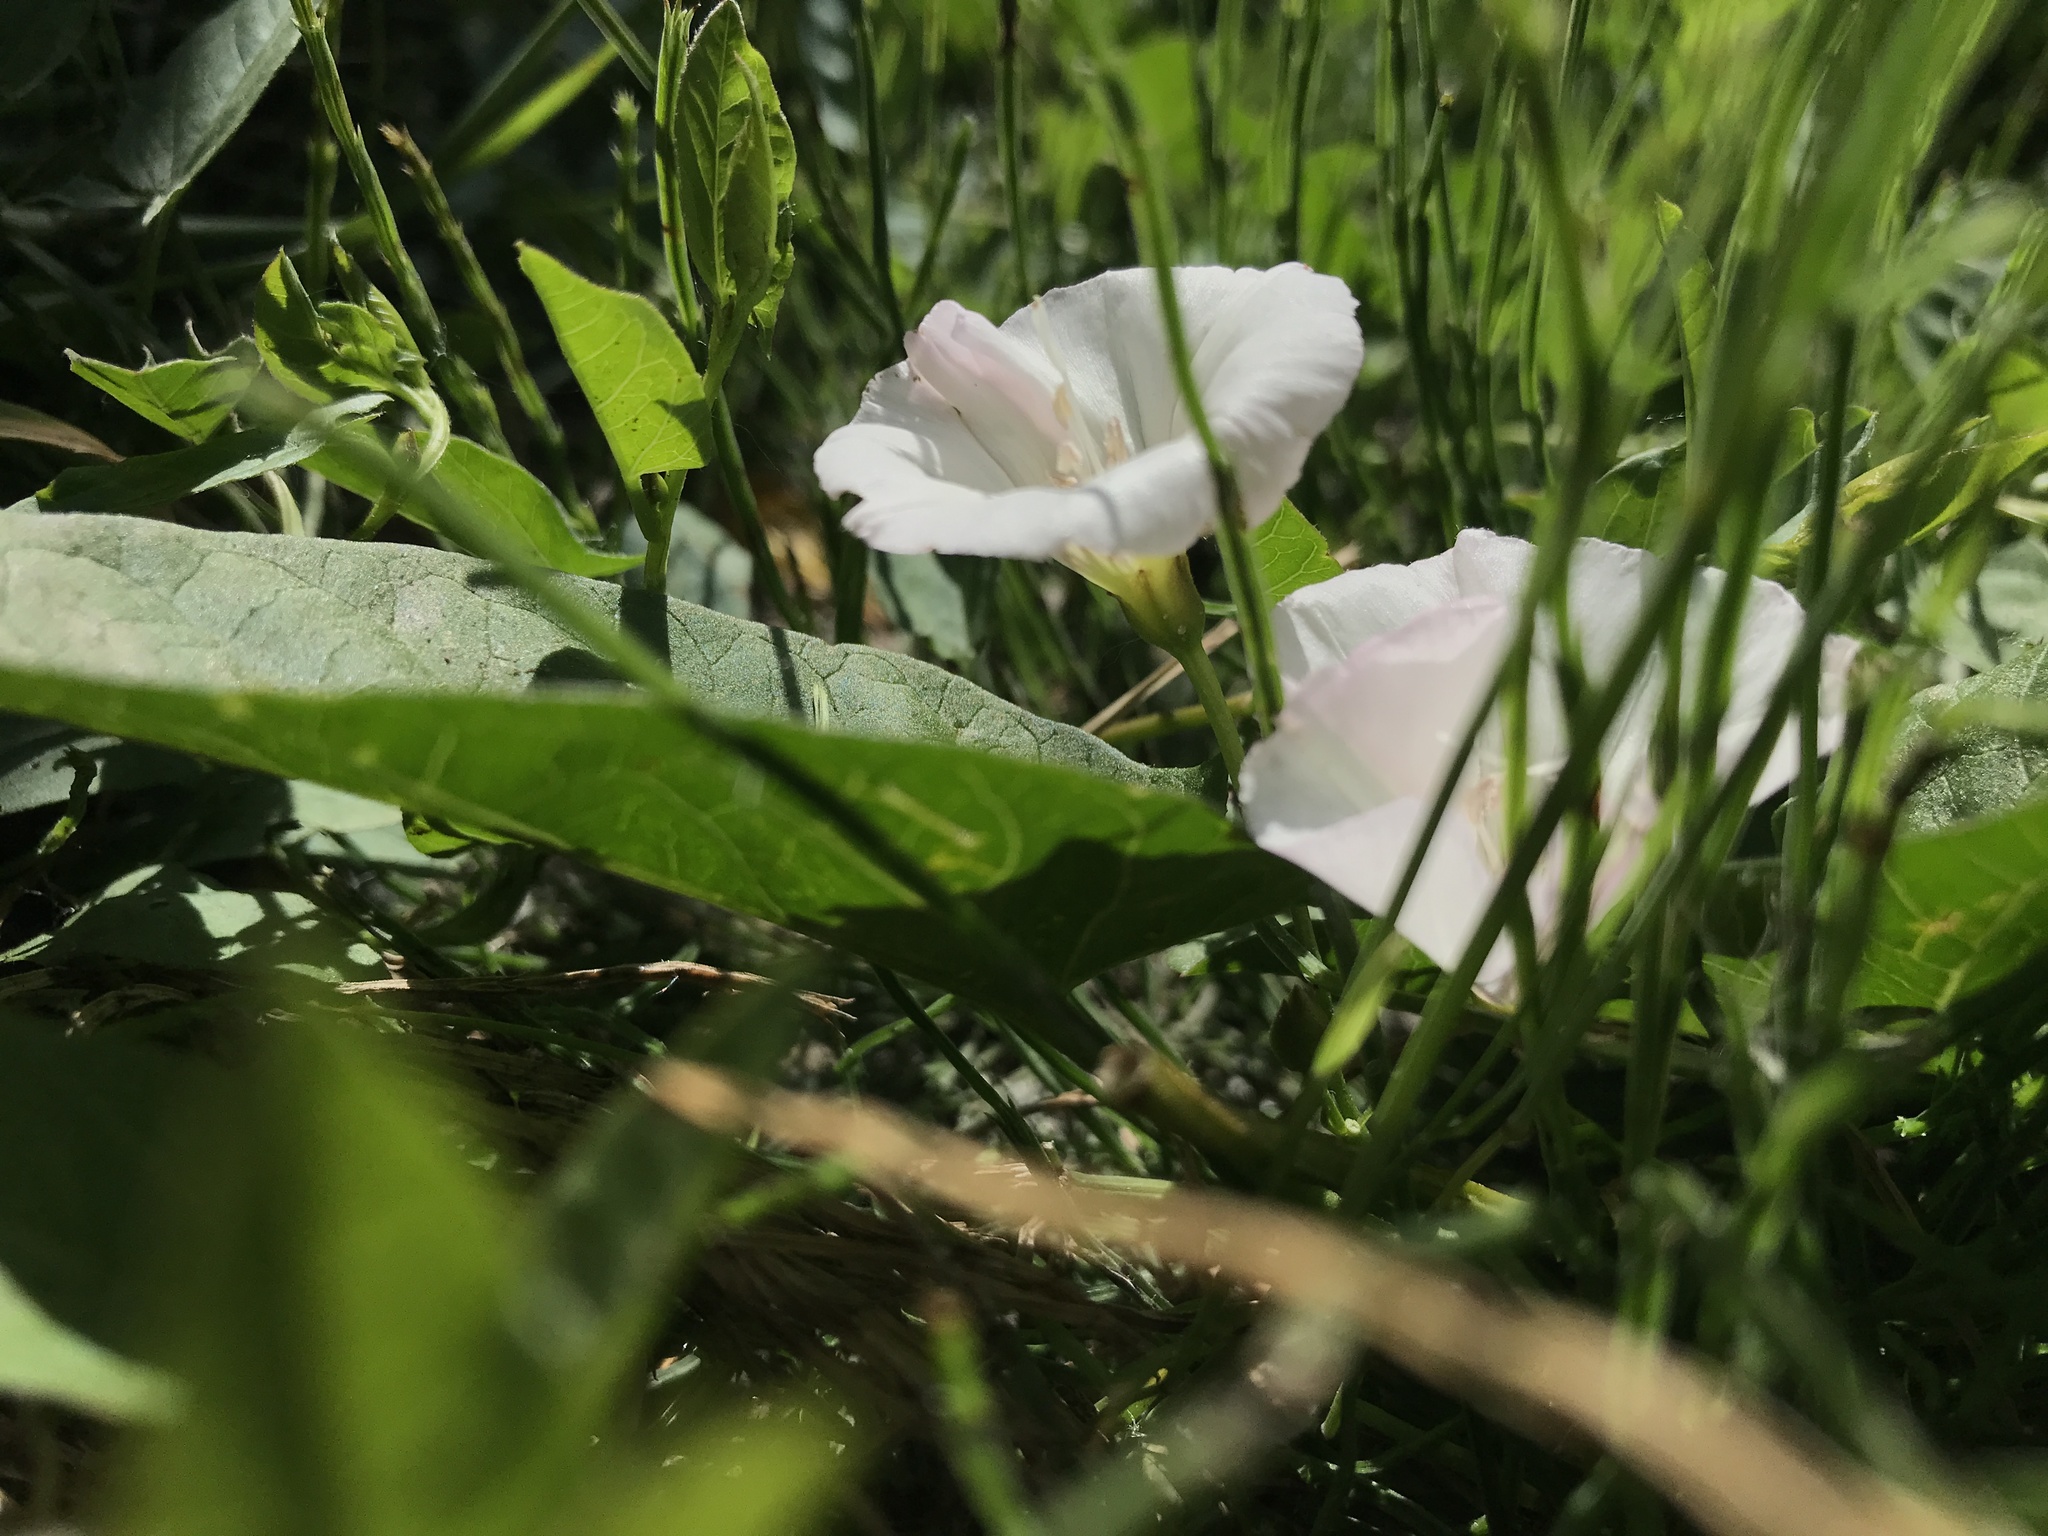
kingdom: Plantae
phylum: Tracheophyta
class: Magnoliopsida
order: Solanales
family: Convolvulaceae
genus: Convolvulus
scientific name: Convolvulus arvensis
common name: Field bindweed
